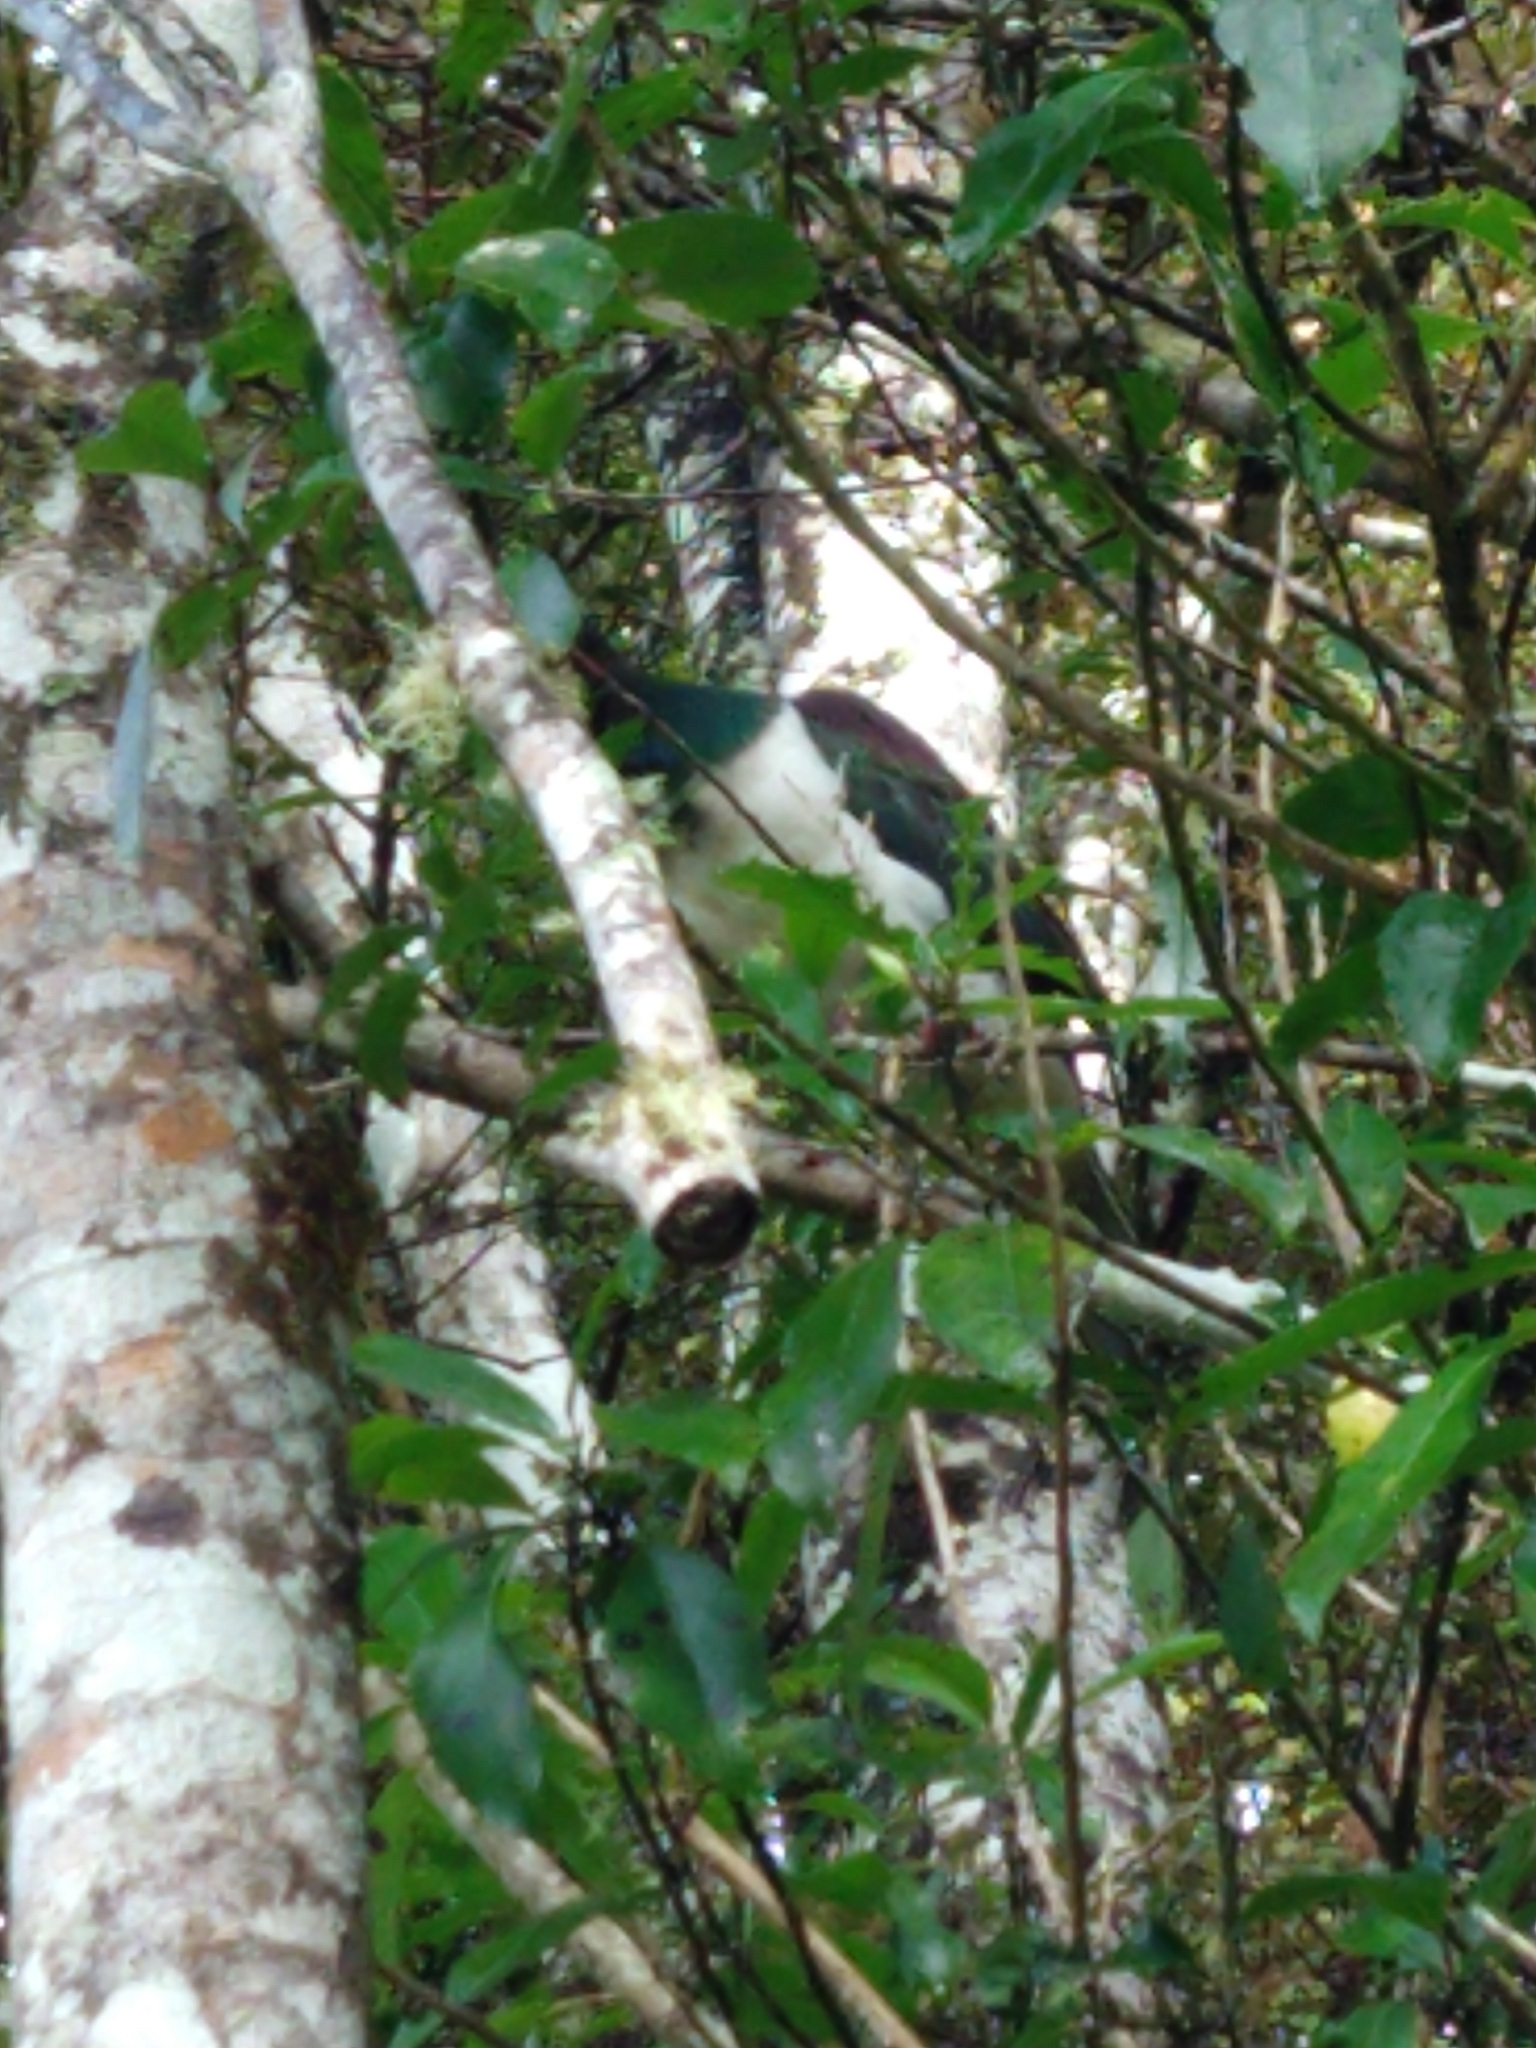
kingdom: Animalia
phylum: Chordata
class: Aves
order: Columbiformes
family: Columbidae
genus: Hemiphaga
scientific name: Hemiphaga novaeseelandiae
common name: New zealand pigeon
